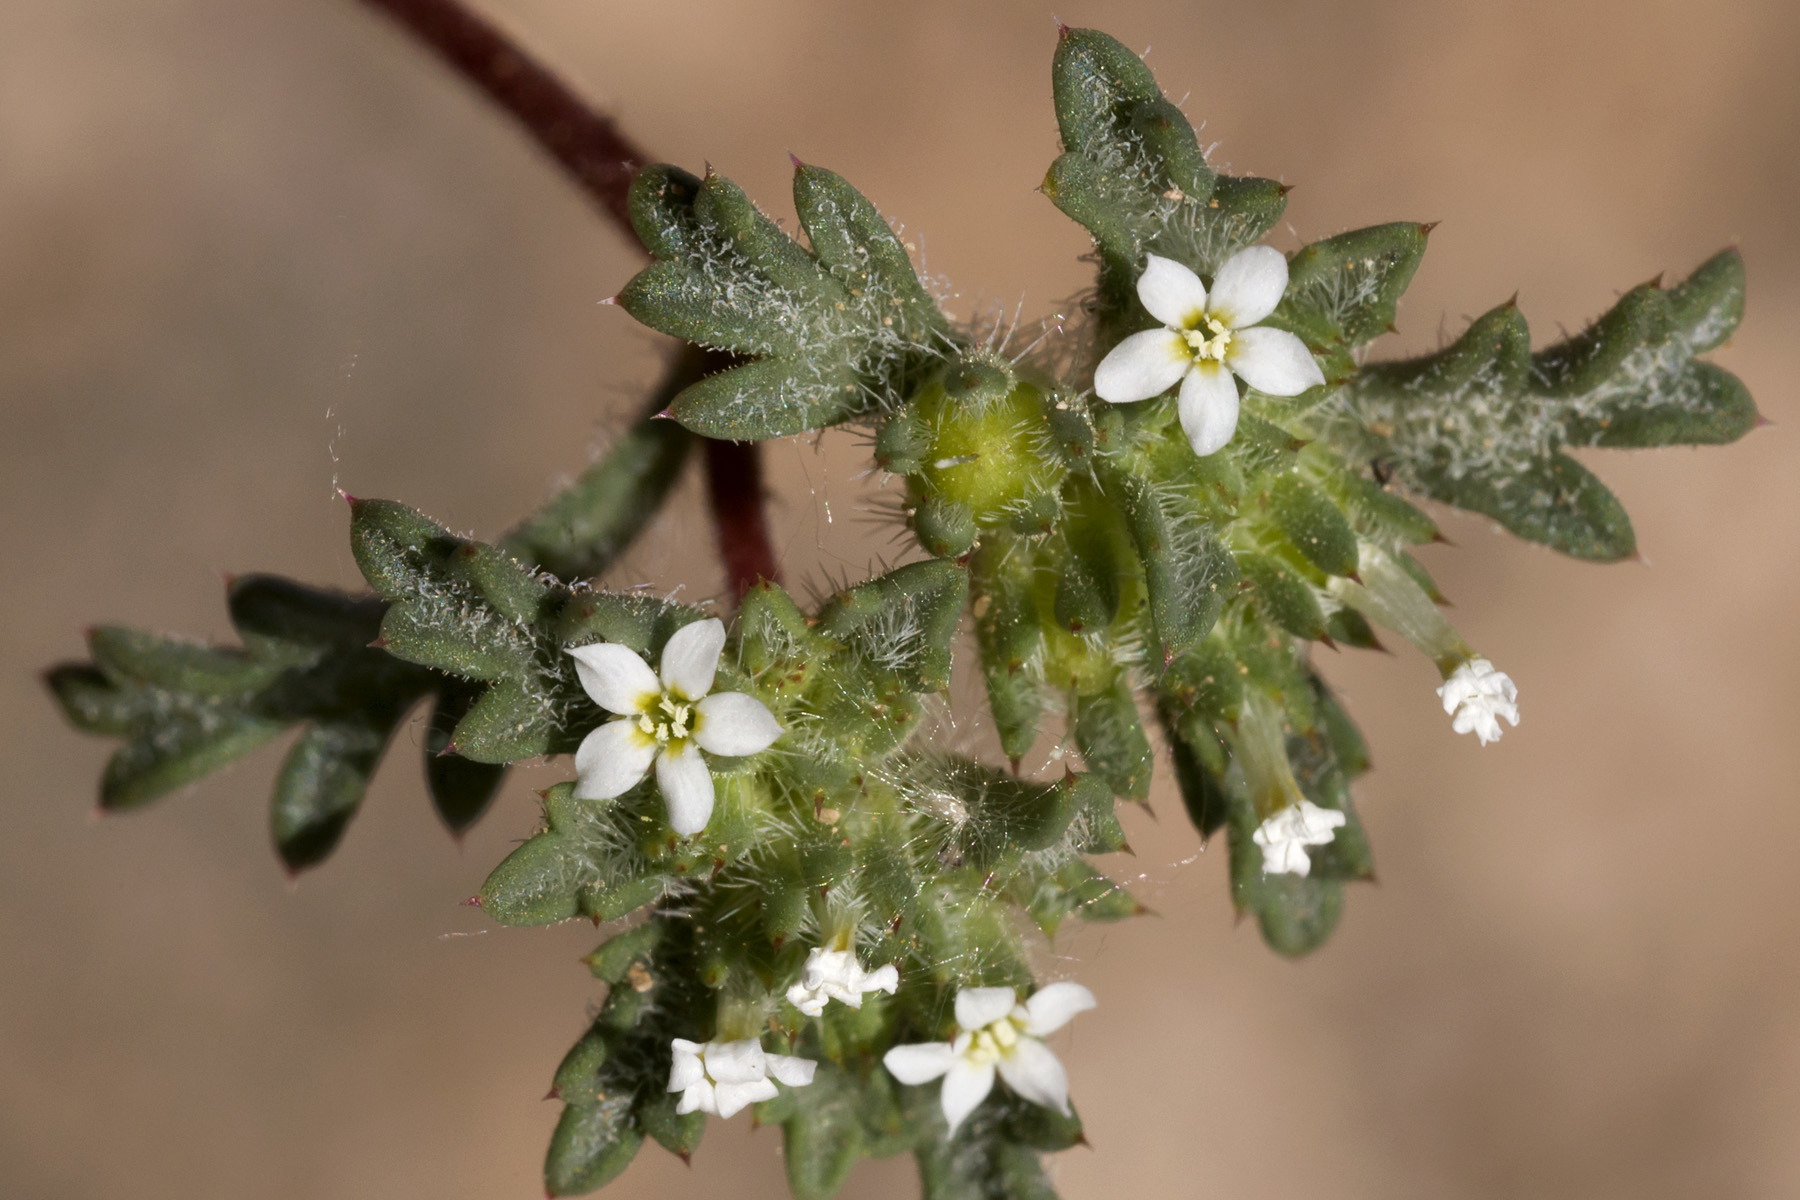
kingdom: Plantae
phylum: Tracheophyta
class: Magnoliopsida
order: Ericales
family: Polemoniaceae
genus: Ipomopsis
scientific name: Ipomopsis polycladon
